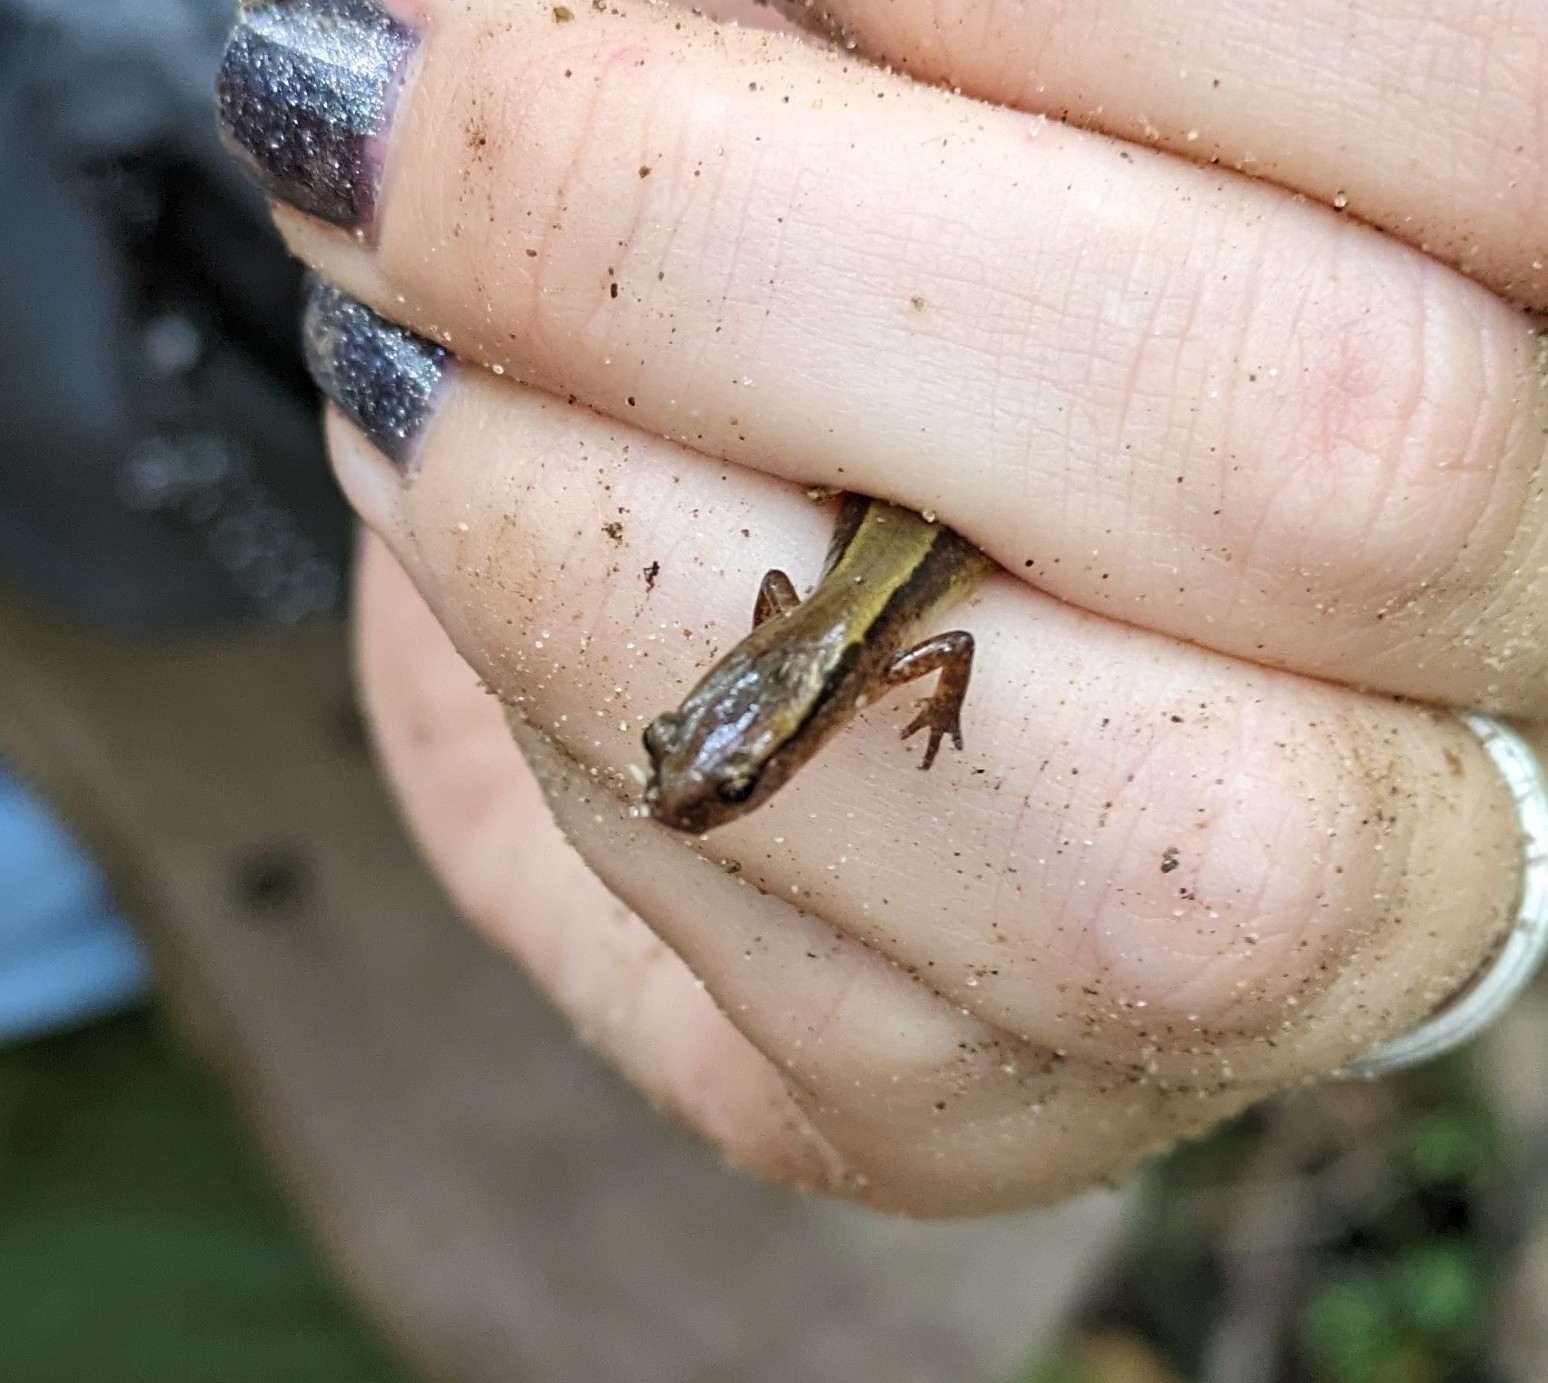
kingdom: Animalia
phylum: Chordata
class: Amphibia
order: Caudata
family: Plethodontidae
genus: Eurycea
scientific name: Eurycea cirrigera
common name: Southern two-lined salamander
